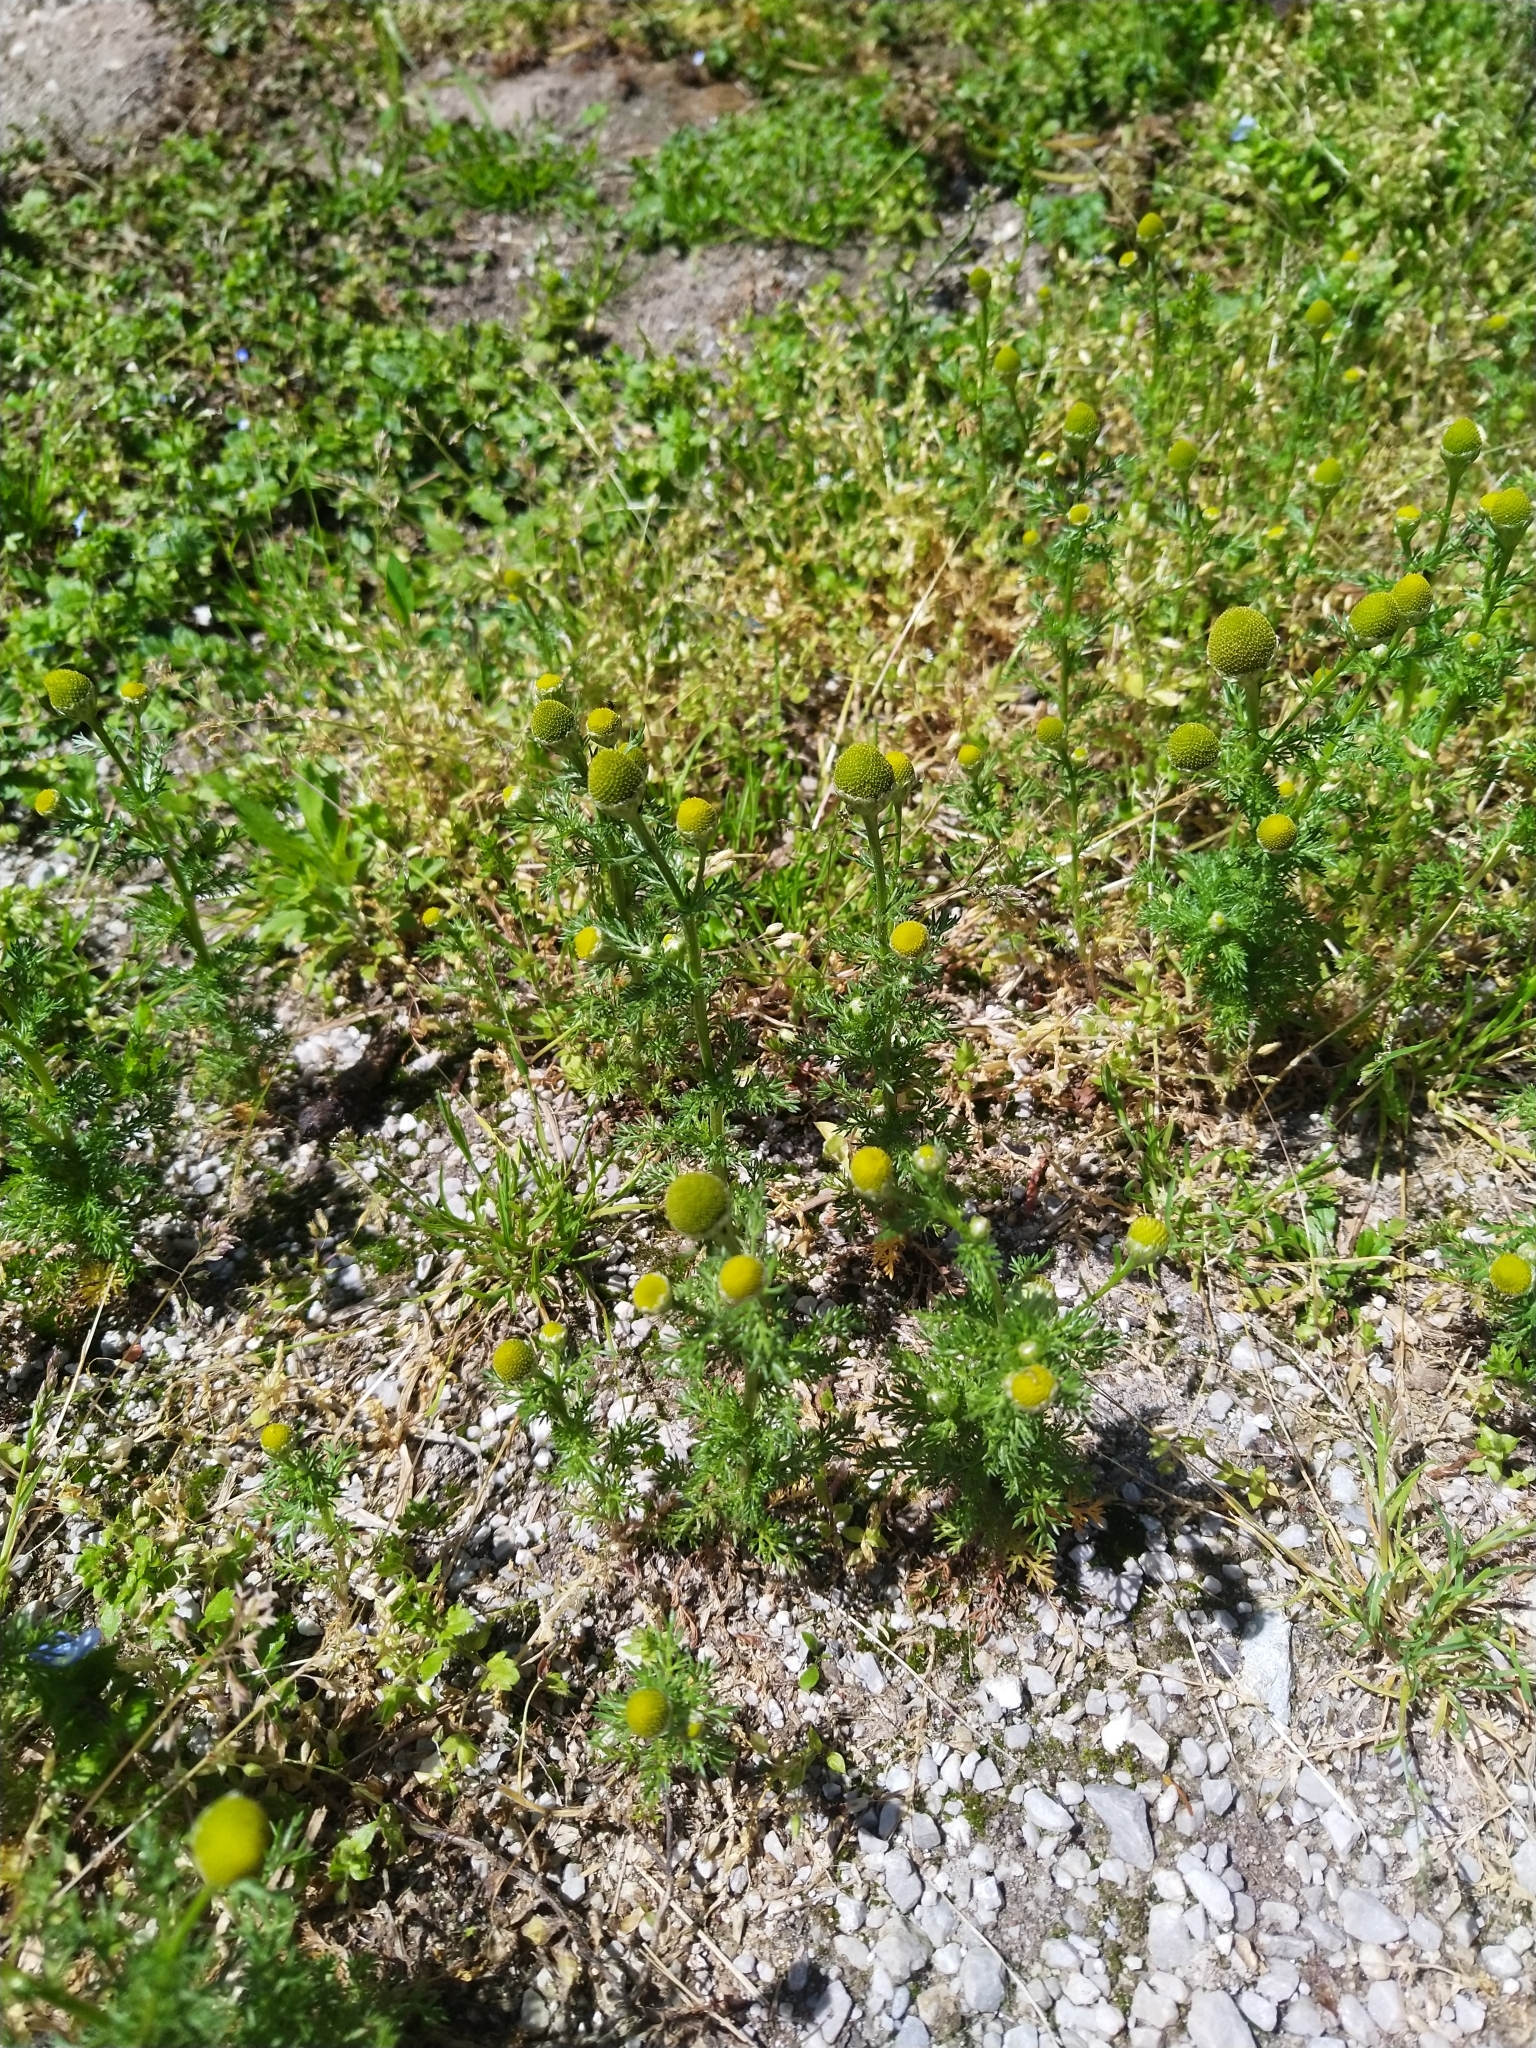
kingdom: Plantae
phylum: Tracheophyta
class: Magnoliopsida
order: Asterales
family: Asteraceae
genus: Matricaria
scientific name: Matricaria discoidea
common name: Disc mayweed
